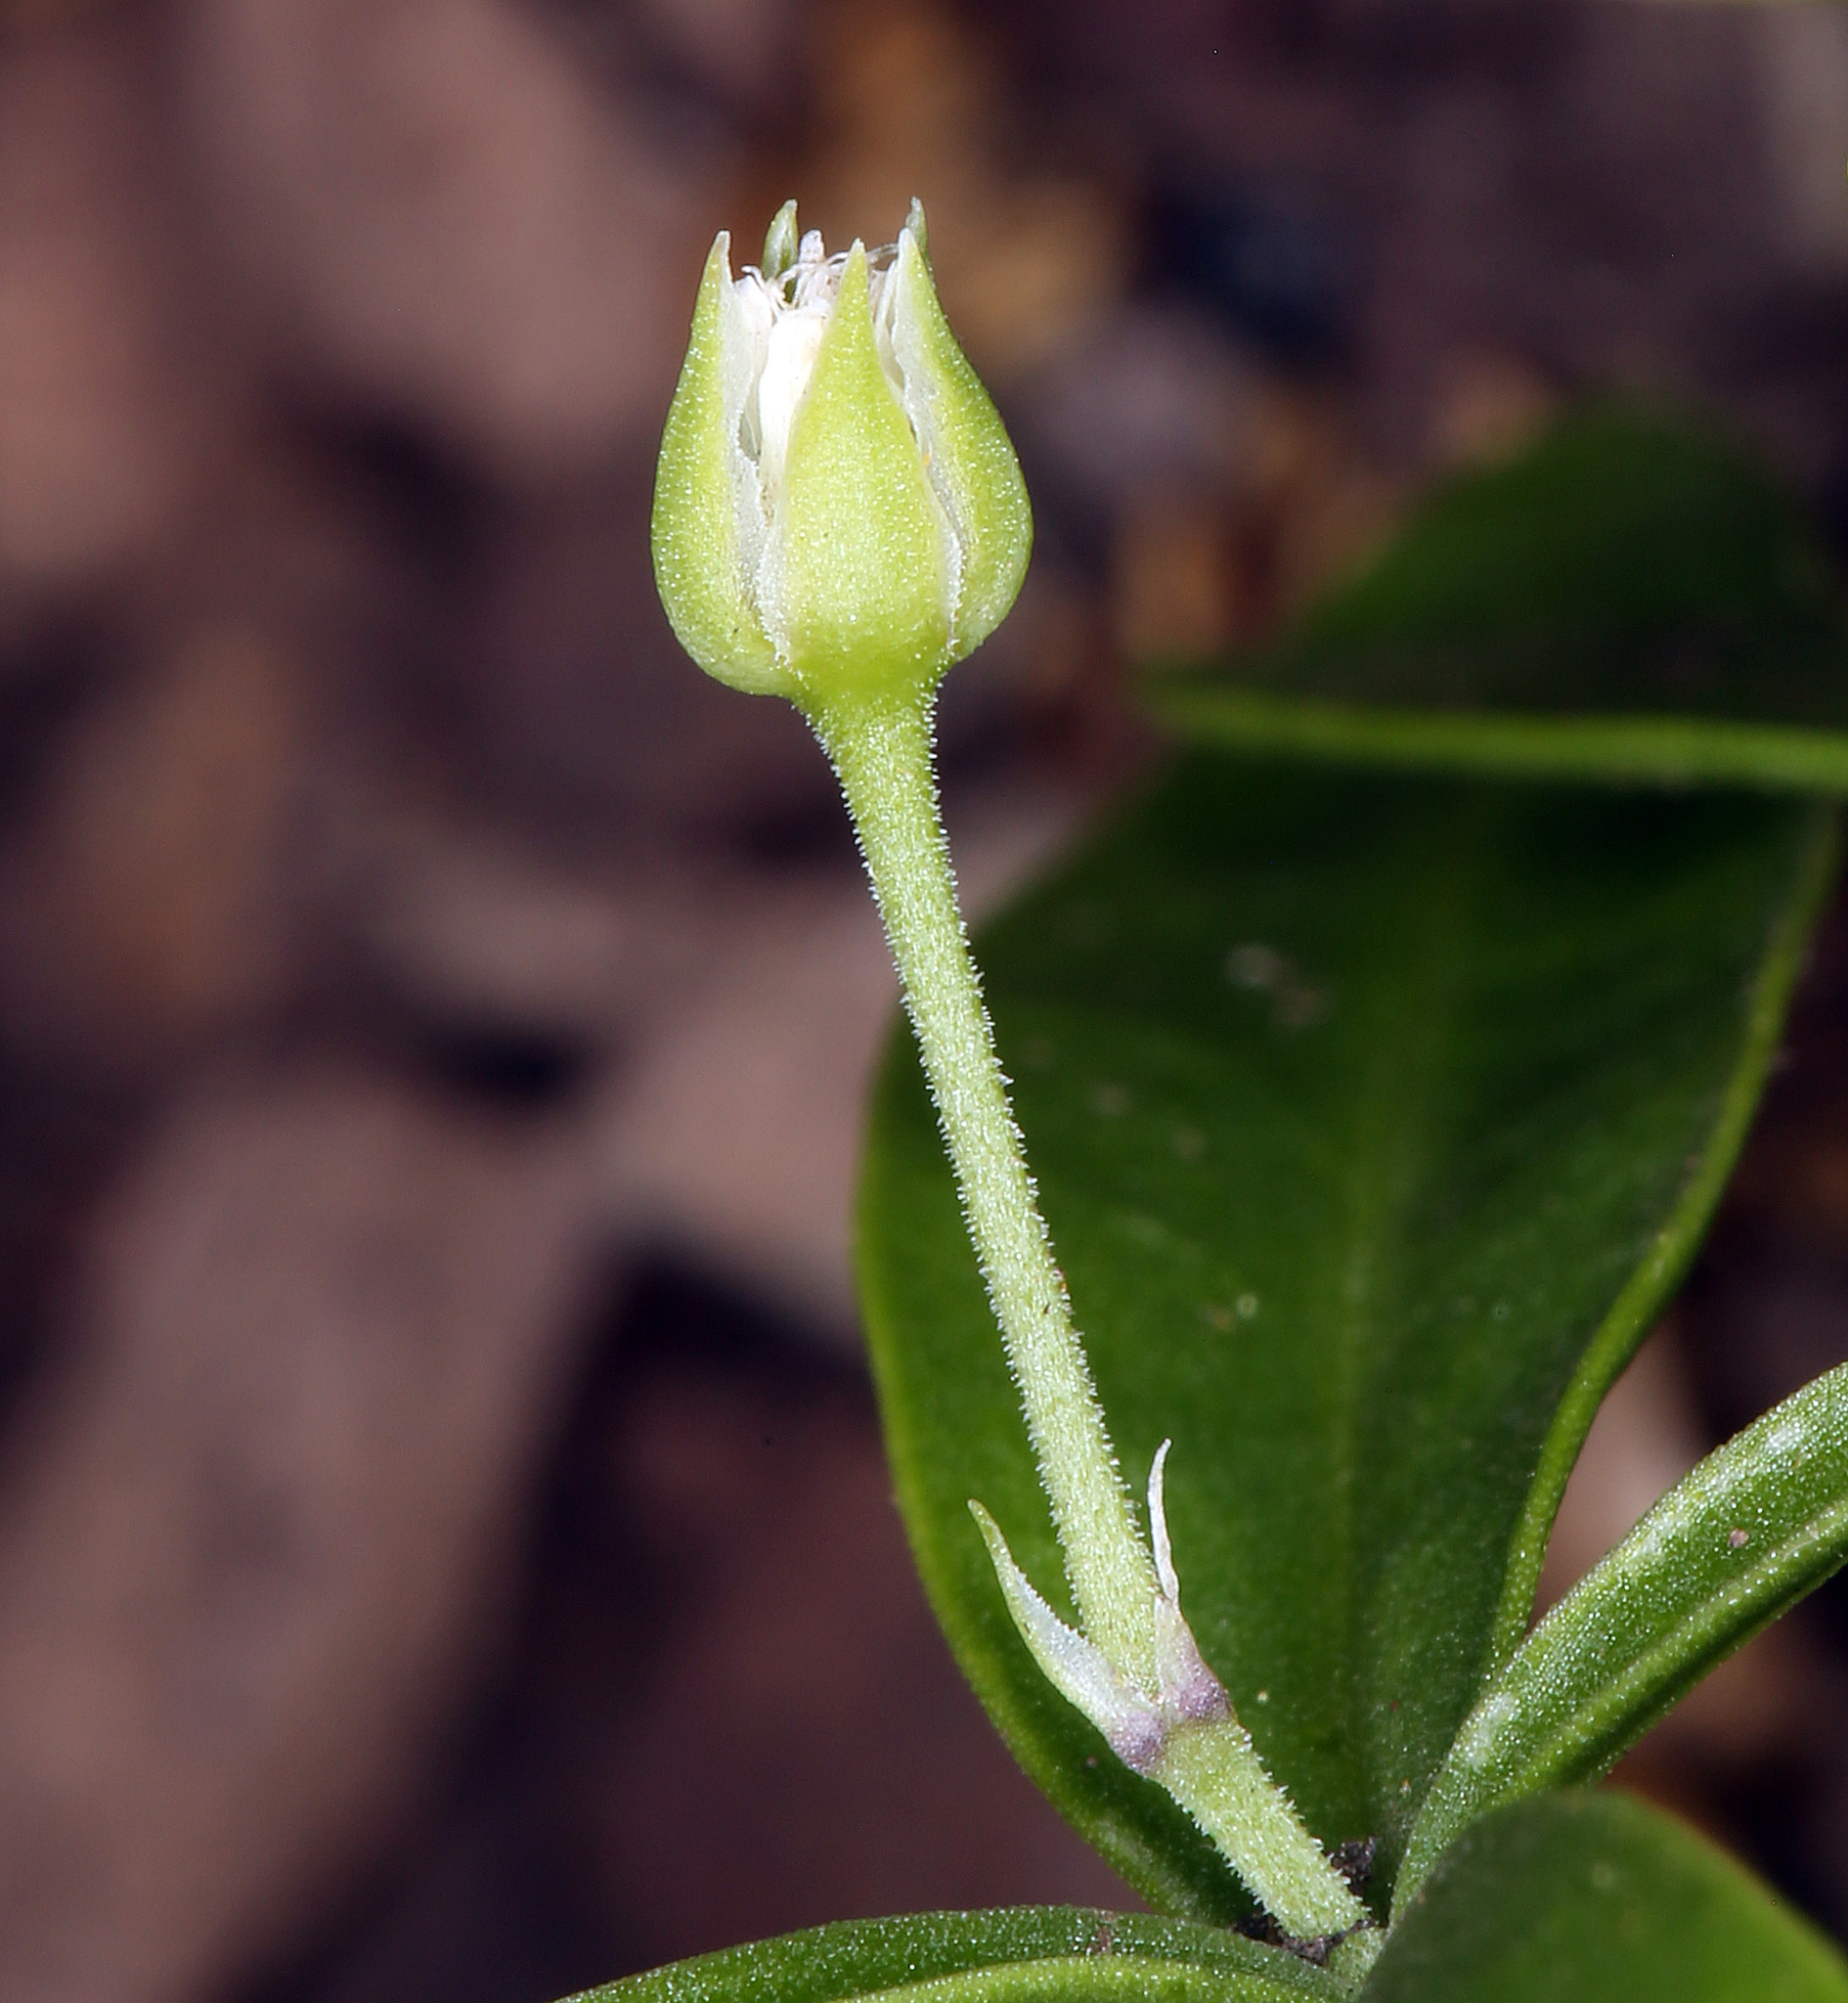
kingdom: Plantae
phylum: Tracheophyta
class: Magnoliopsida
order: Caryophyllales
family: Caryophyllaceae
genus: Moehringia
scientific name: Moehringia macrophylla
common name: Big-leaf sandwort
